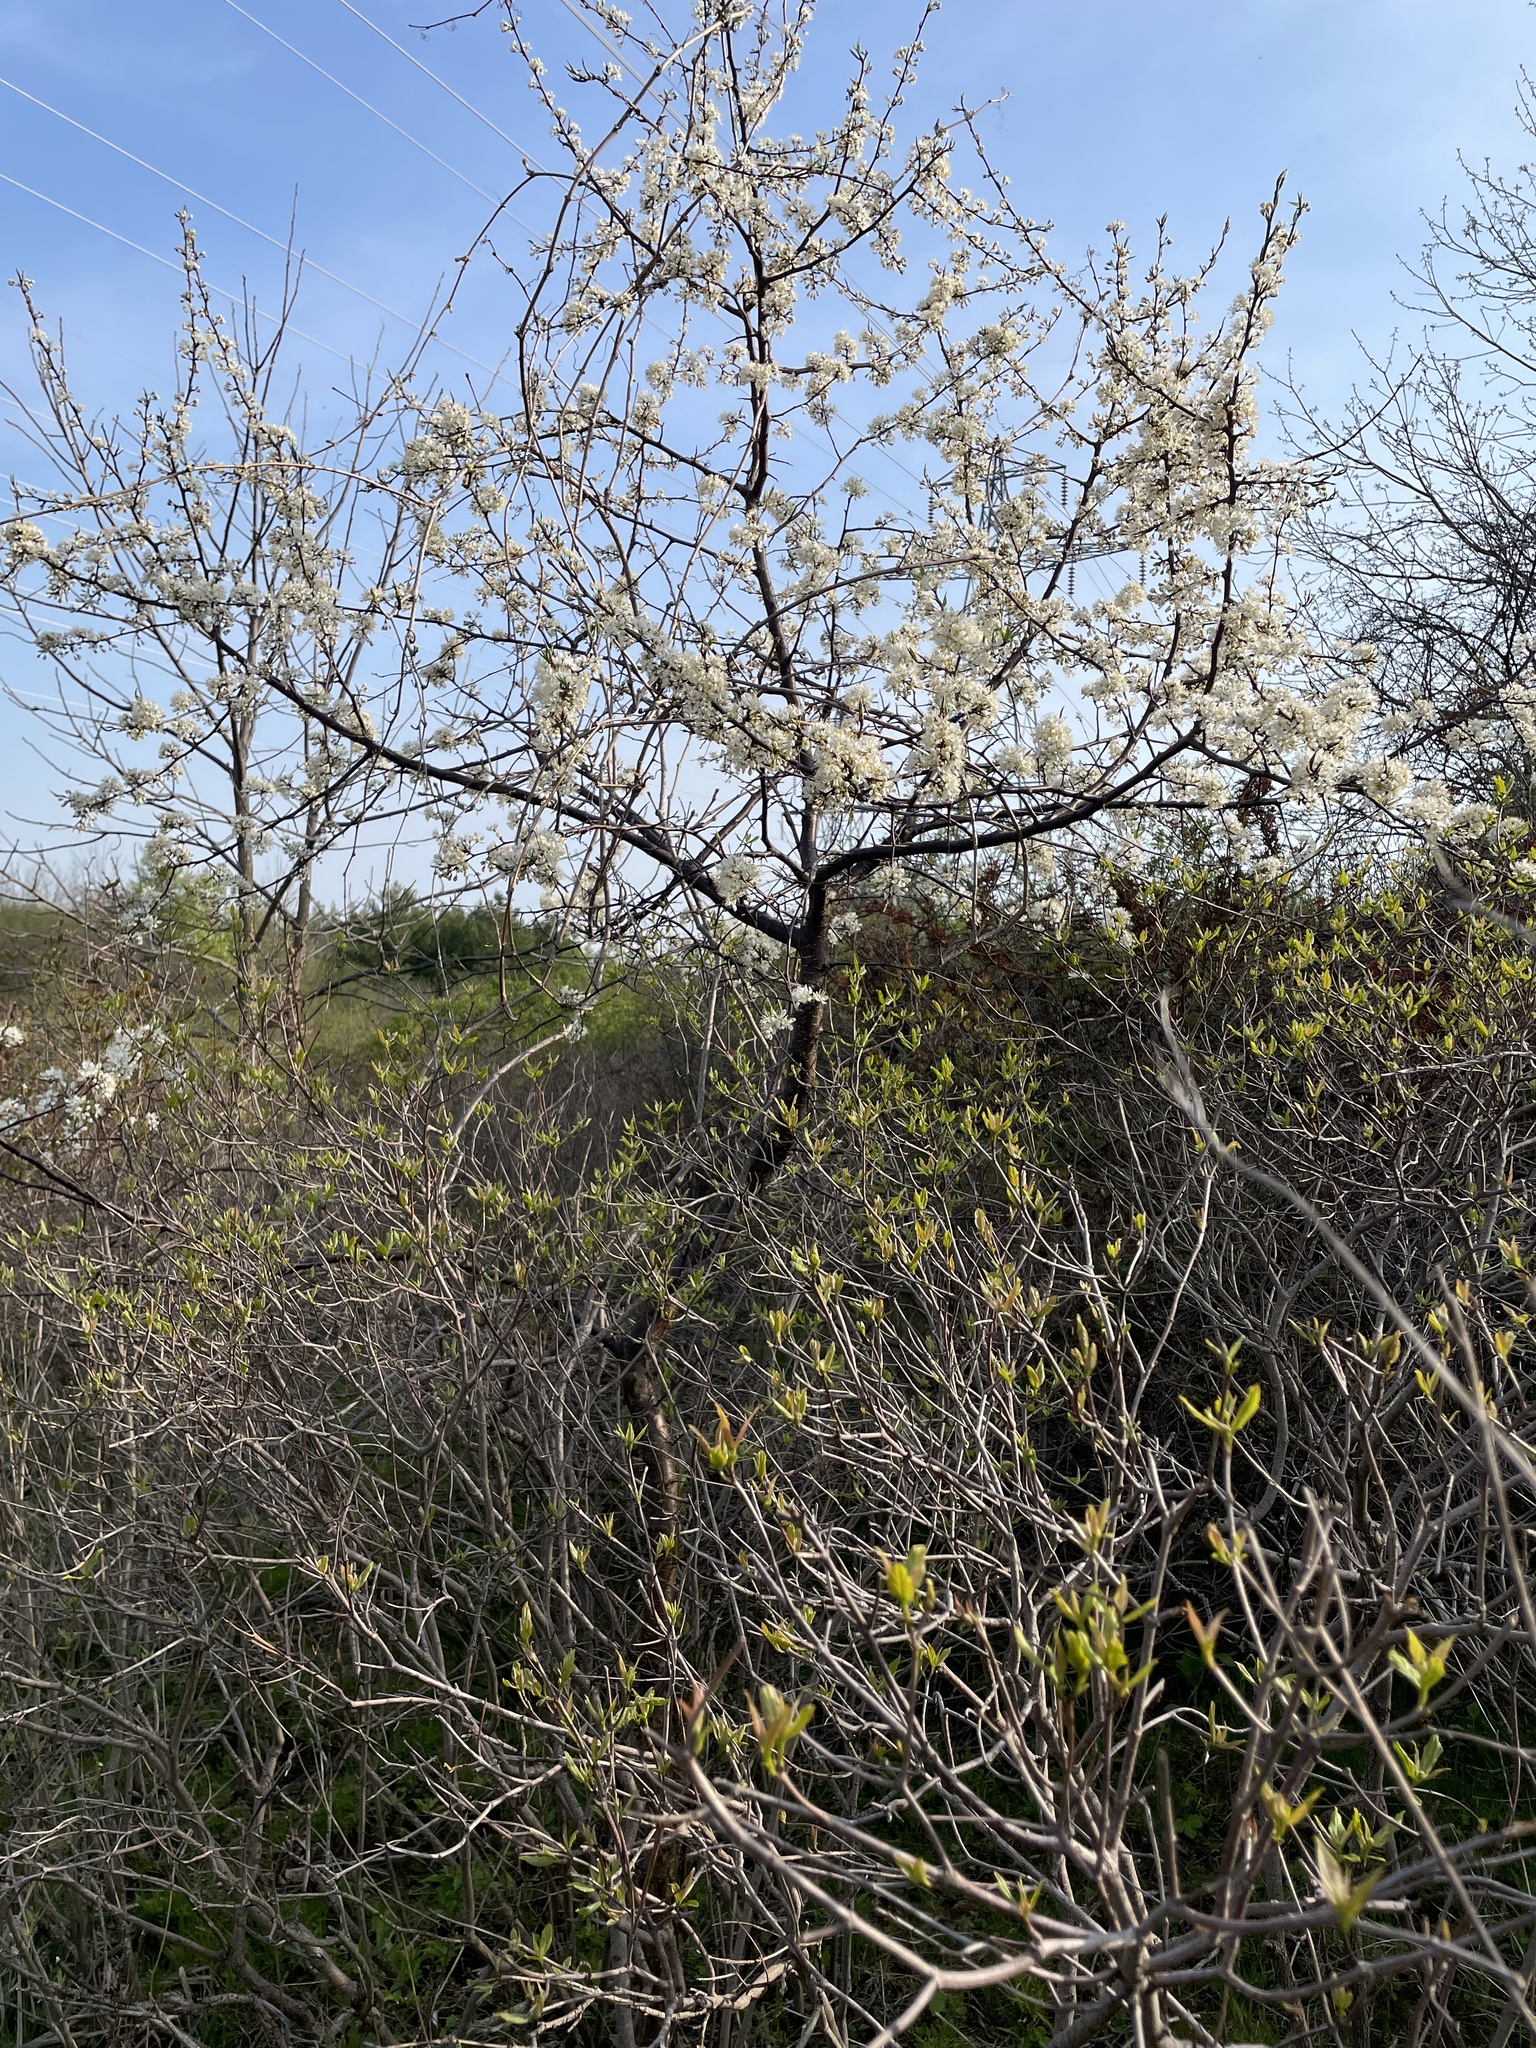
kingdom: Plantae
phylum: Tracheophyta
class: Magnoliopsida
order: Rosales
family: Rosaceae
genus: Prunus
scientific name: Prunus americana
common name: American plum
